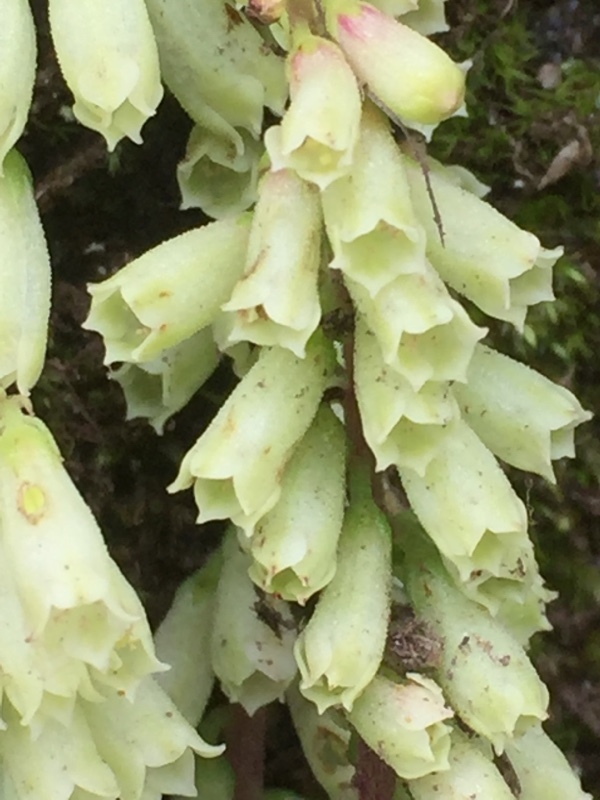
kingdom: Plantae
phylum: Tracheophyta
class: Magnoliopsida
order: Saxifragales
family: Crassulaceae
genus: Umbilicus
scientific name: Umbilicus rupestris
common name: Navelwort
